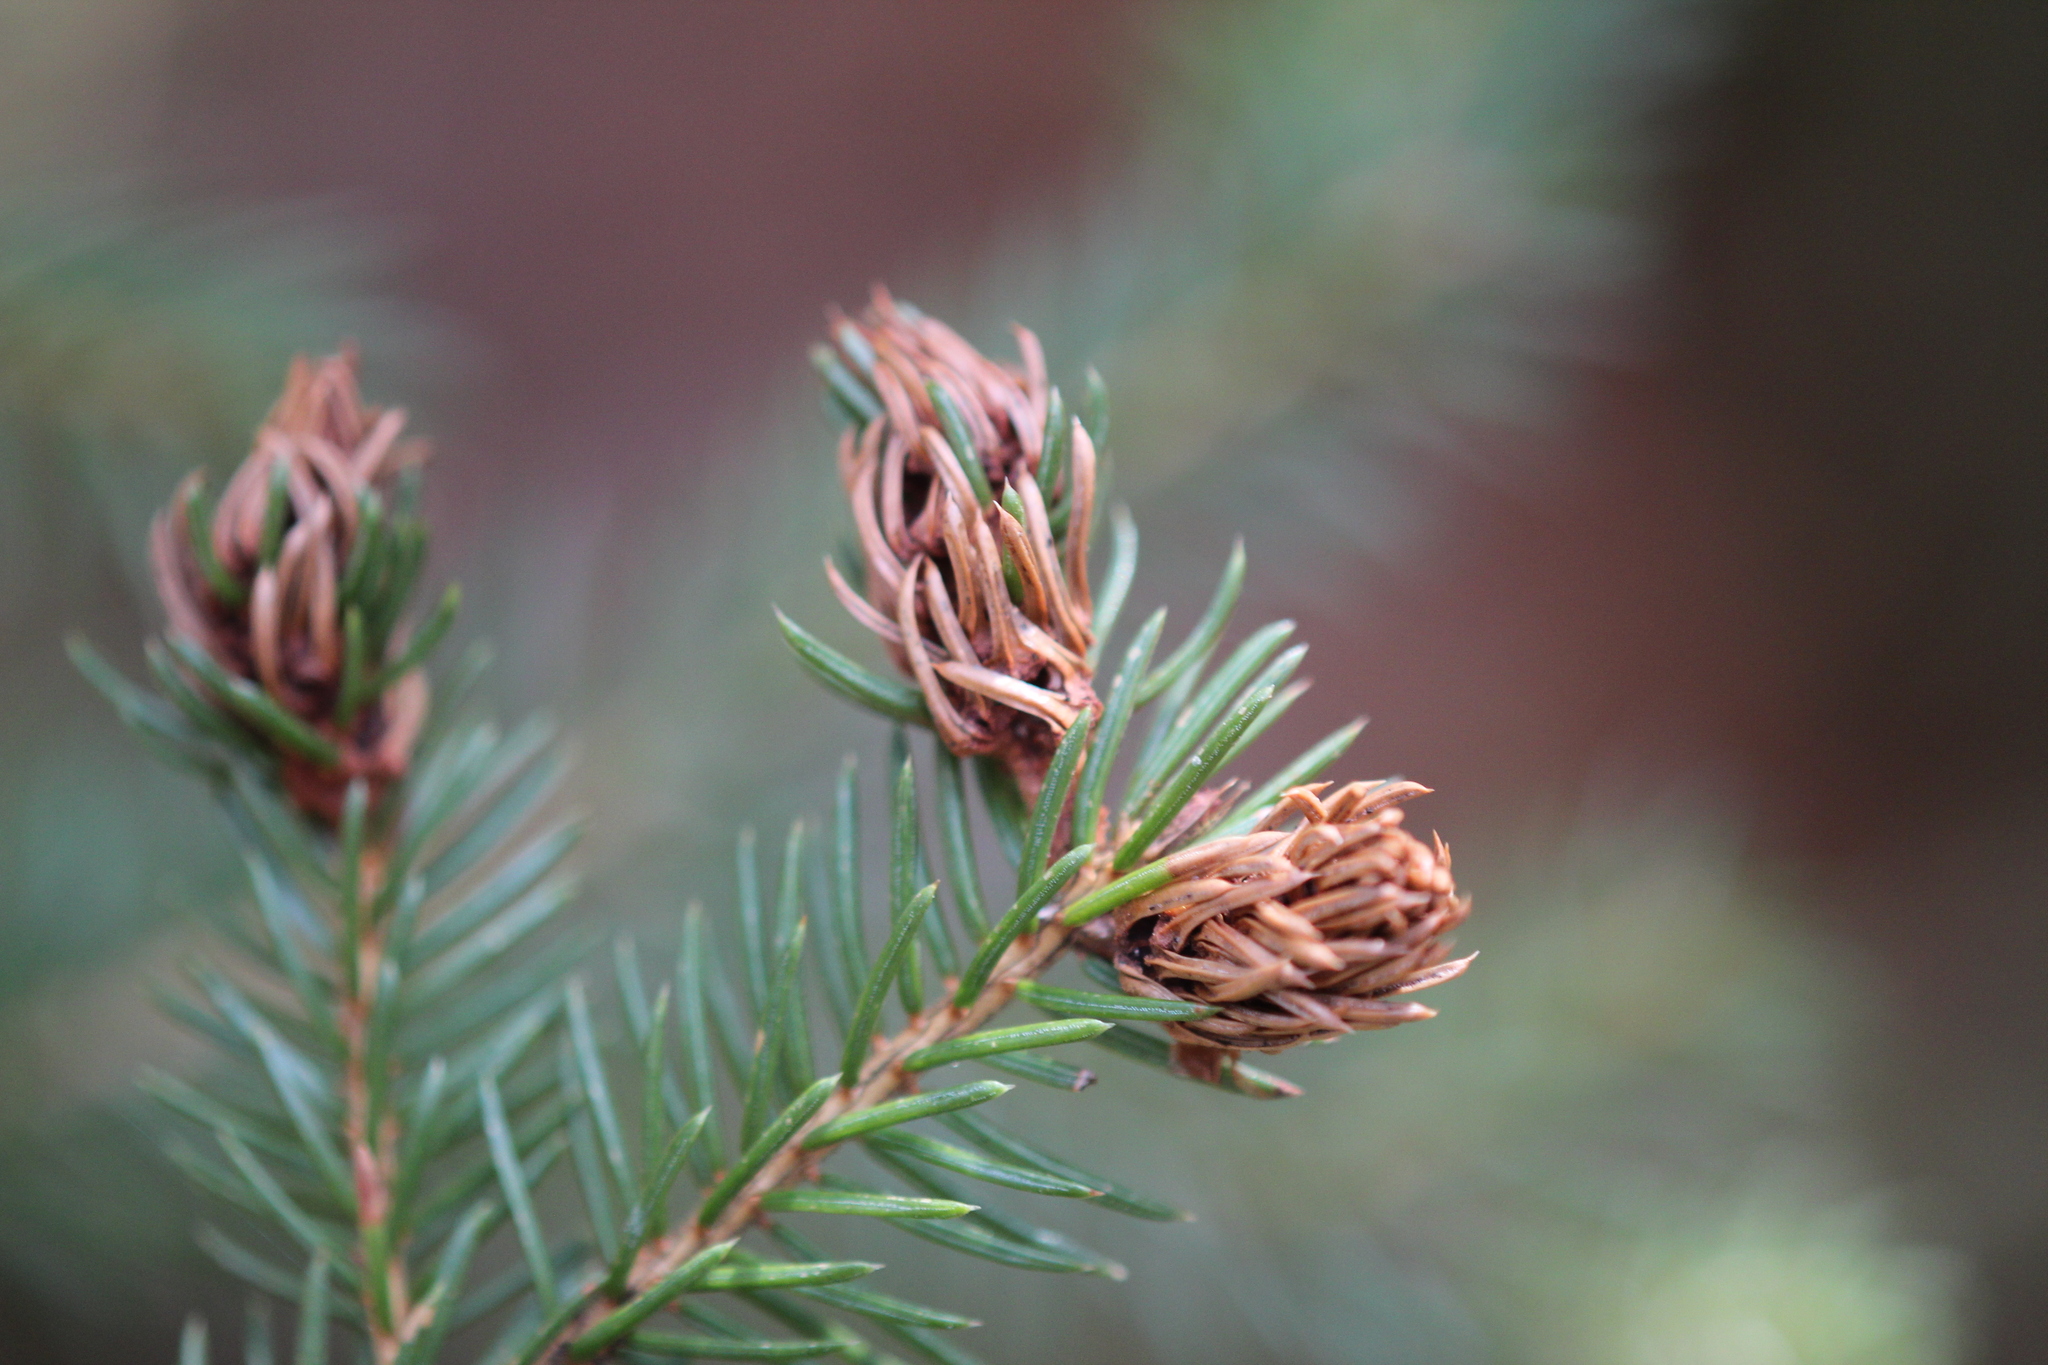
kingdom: Animalia
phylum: Arthropoda
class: Insecta
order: Hemiptera
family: Adelgidae
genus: Adelges
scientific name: Adelges abietis
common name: Eastern spruce gall adelgid
